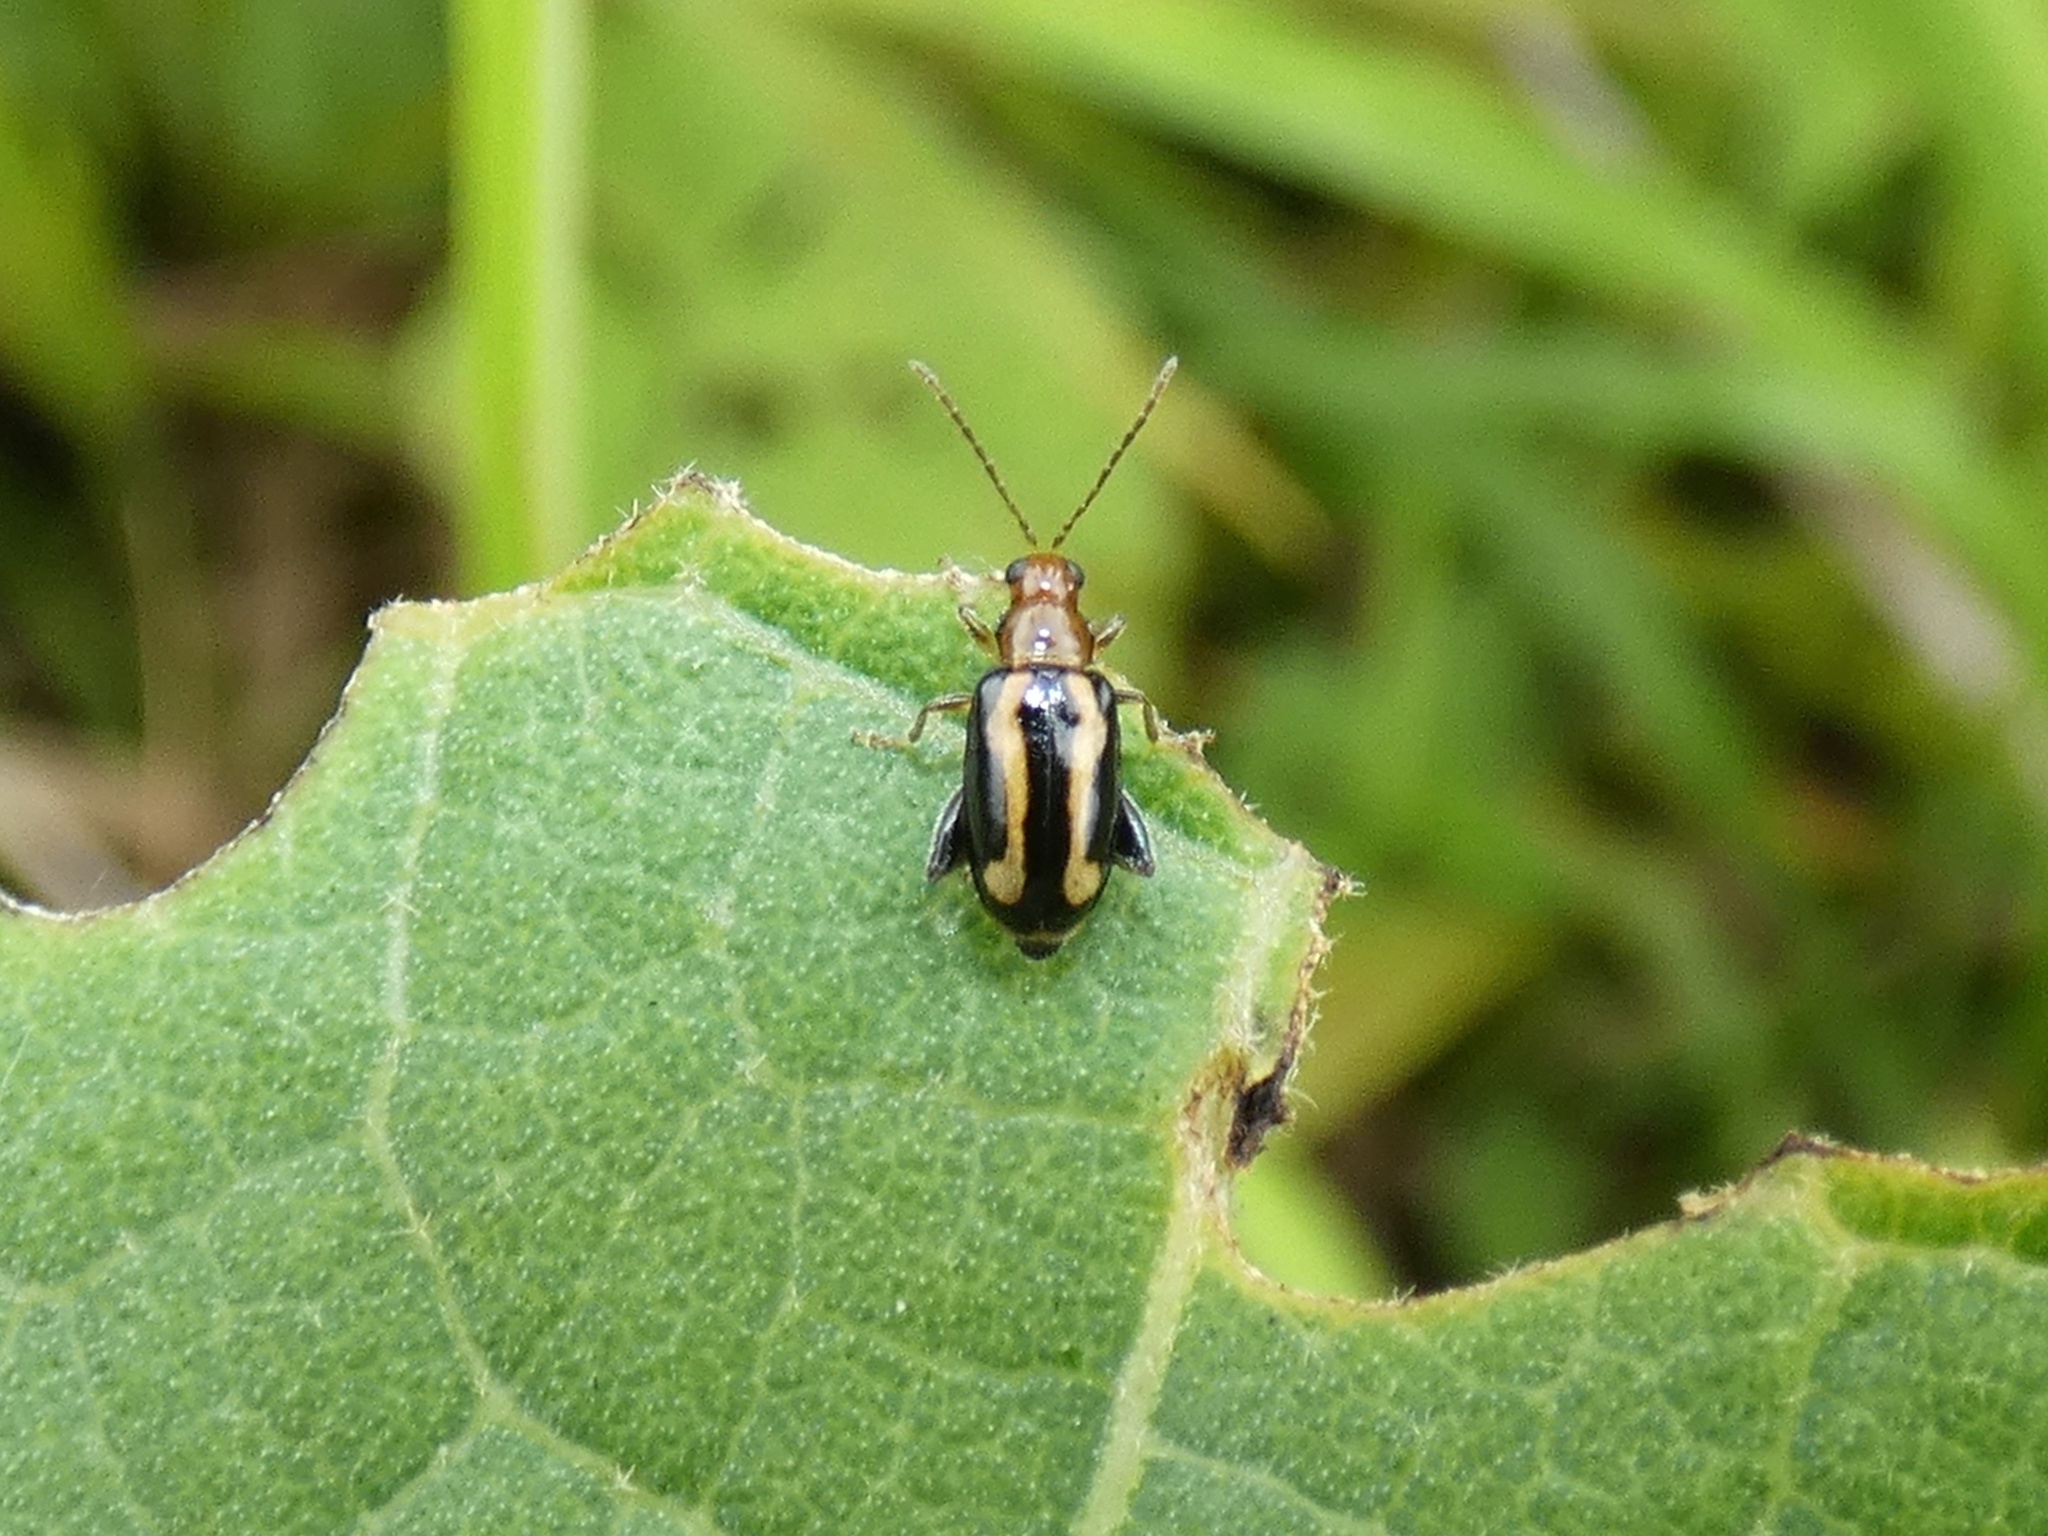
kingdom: Animalia
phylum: Arthropoda
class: Insecta
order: Coleoptera
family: Chrysomelidae
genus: Systena
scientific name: Systena s-littera
